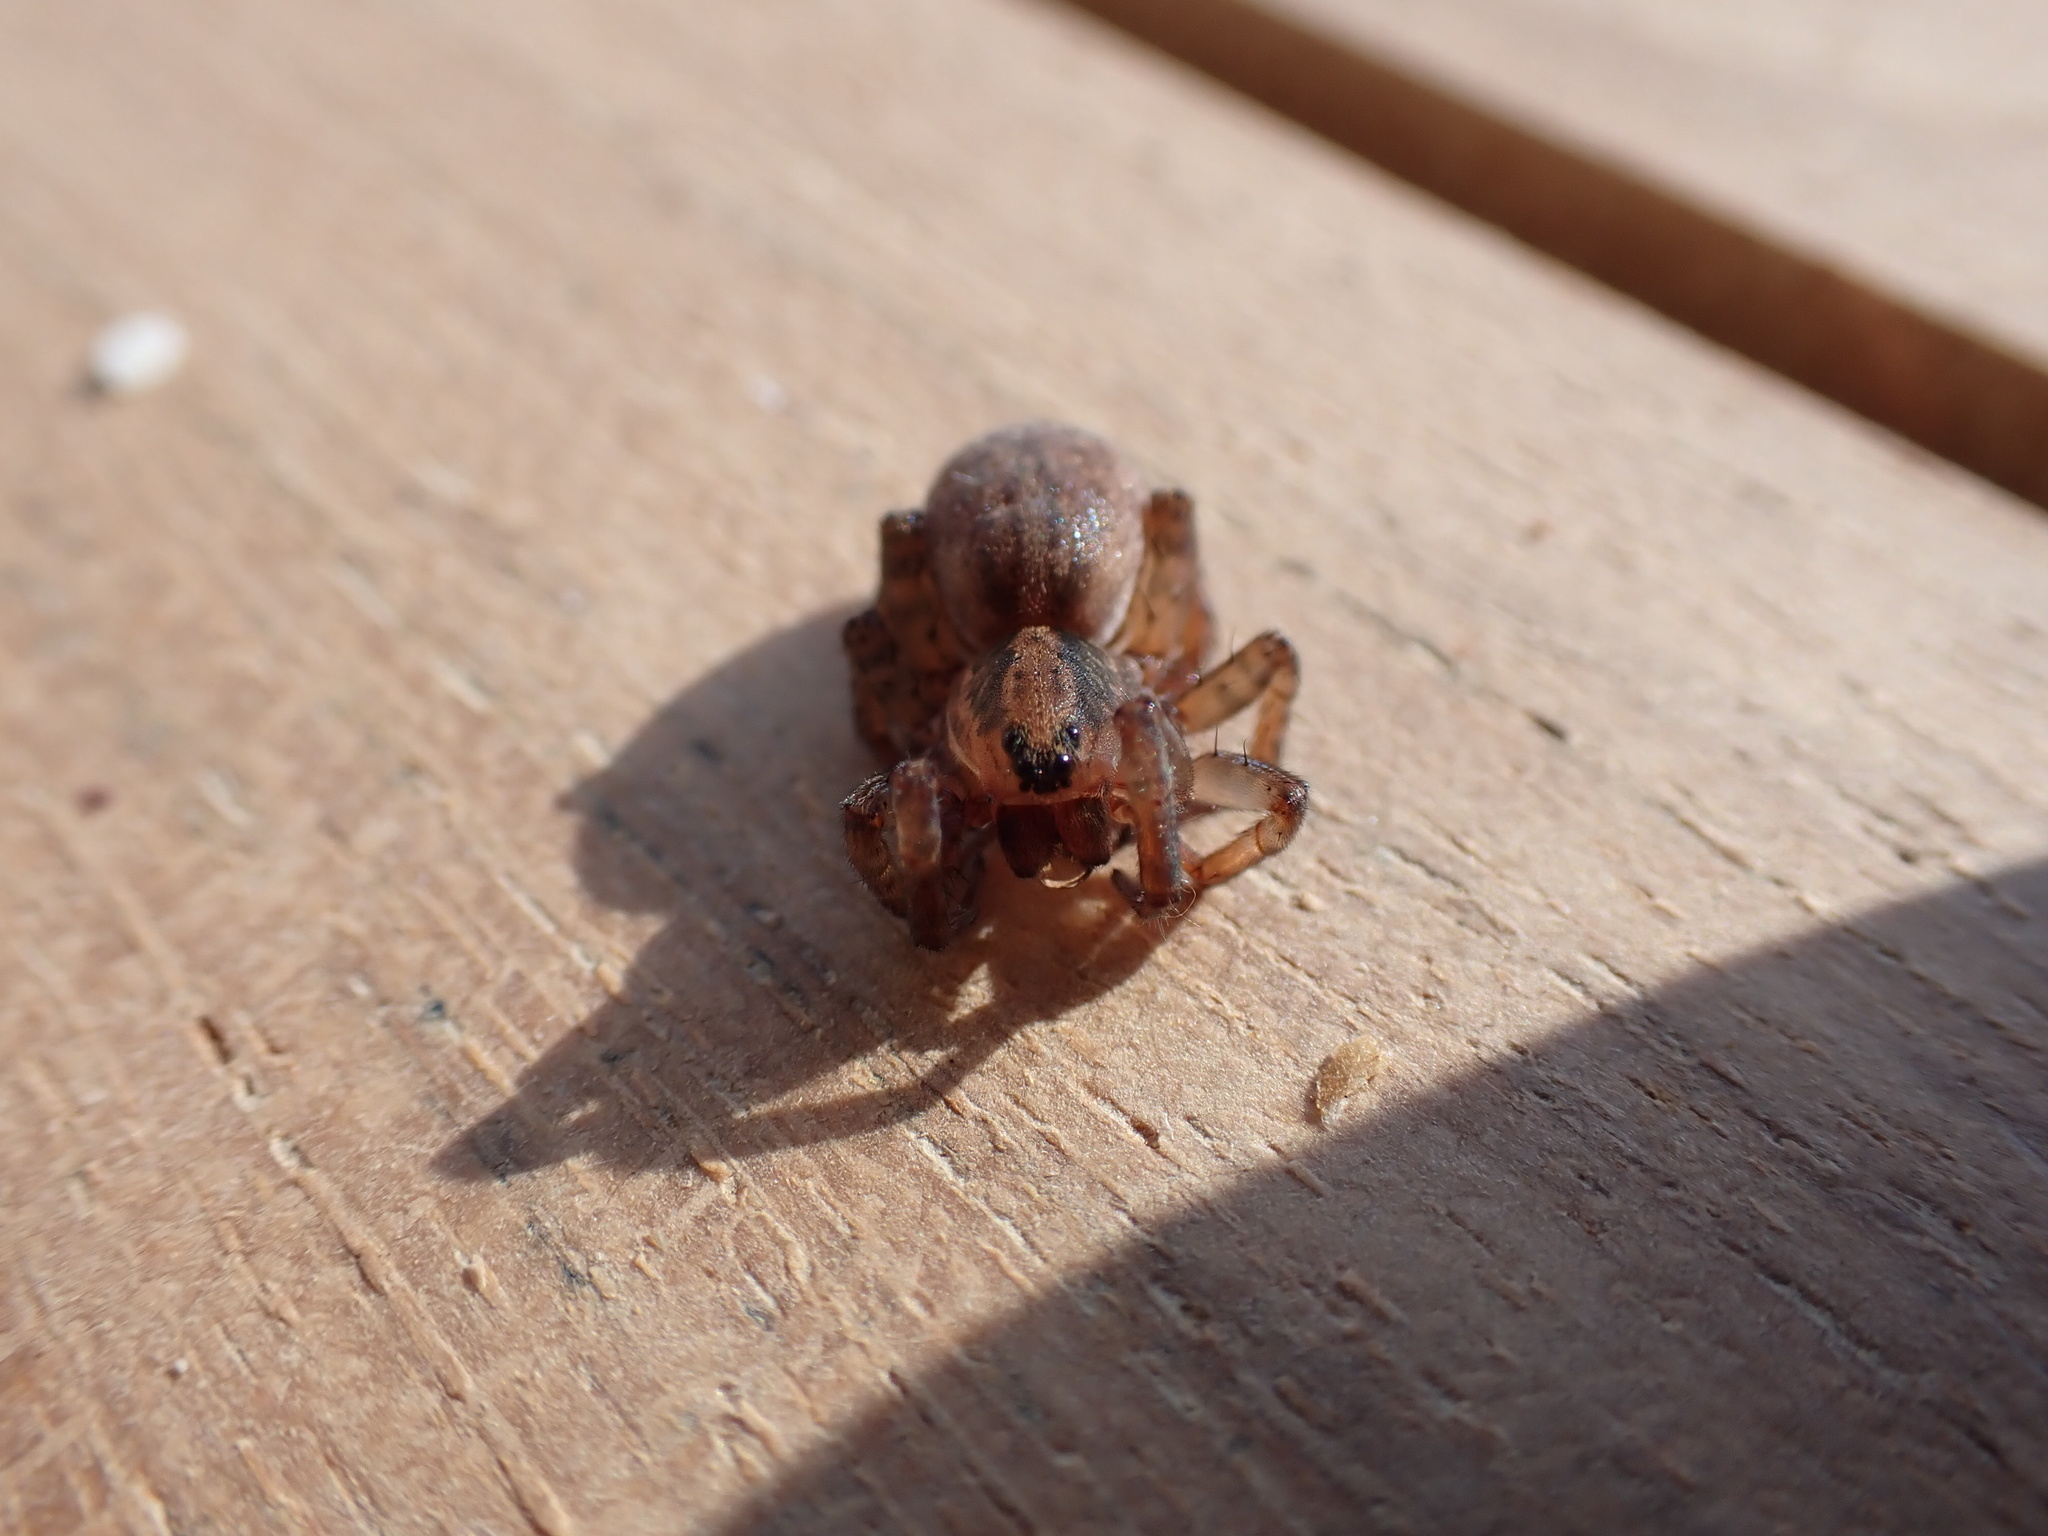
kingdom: Animalia
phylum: Arthropoda
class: Arachnida
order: Araneae
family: Lycosidae
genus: Trochosa
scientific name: Trochosa terricola
